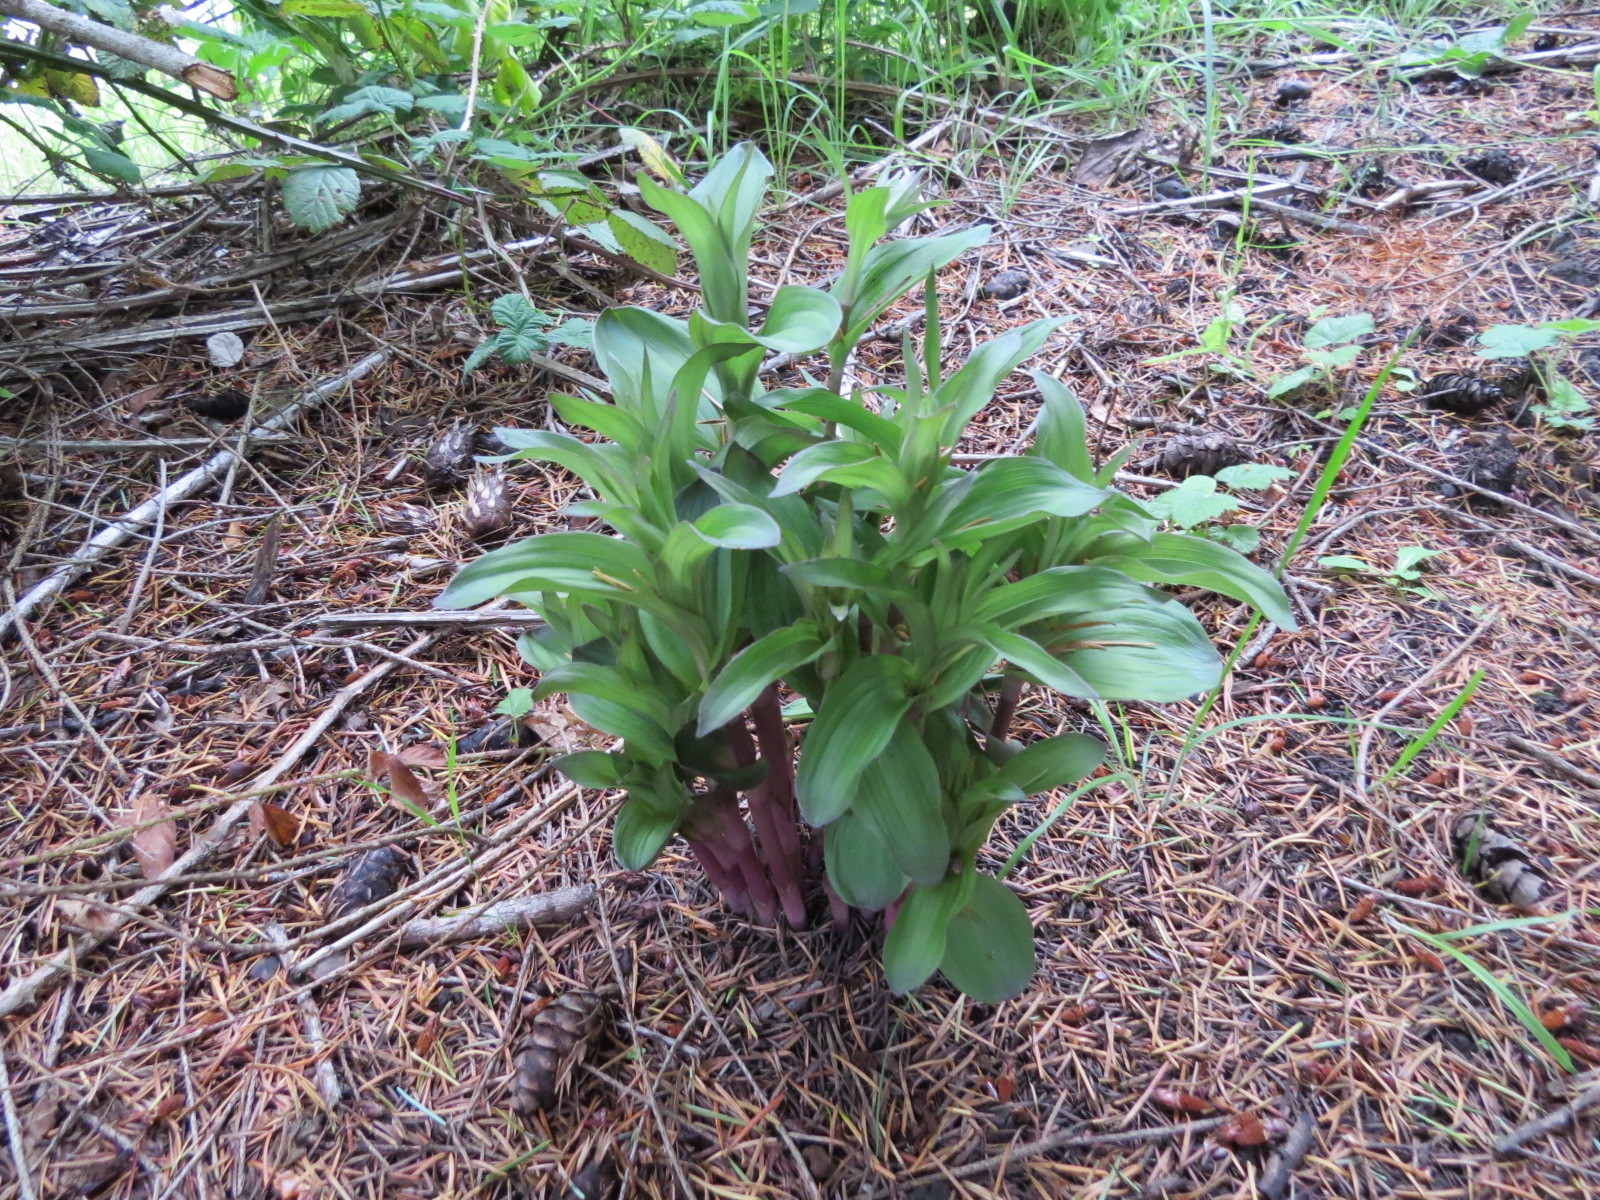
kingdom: Plantae
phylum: Tracheophyta
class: Liliopsida
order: Asparagales
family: Orchidaceae
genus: Epipactis
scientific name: Epipactis helleborine
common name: Broad-leaved helleborine
